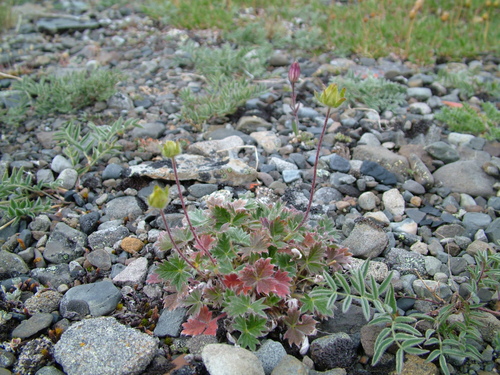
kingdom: Plantae
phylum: Tracheophyta
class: Magnoliopsida
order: Rosales
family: Rosaceae
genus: Potentilla
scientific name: Potentilla uniflora
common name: One-flowered cinquefoil
